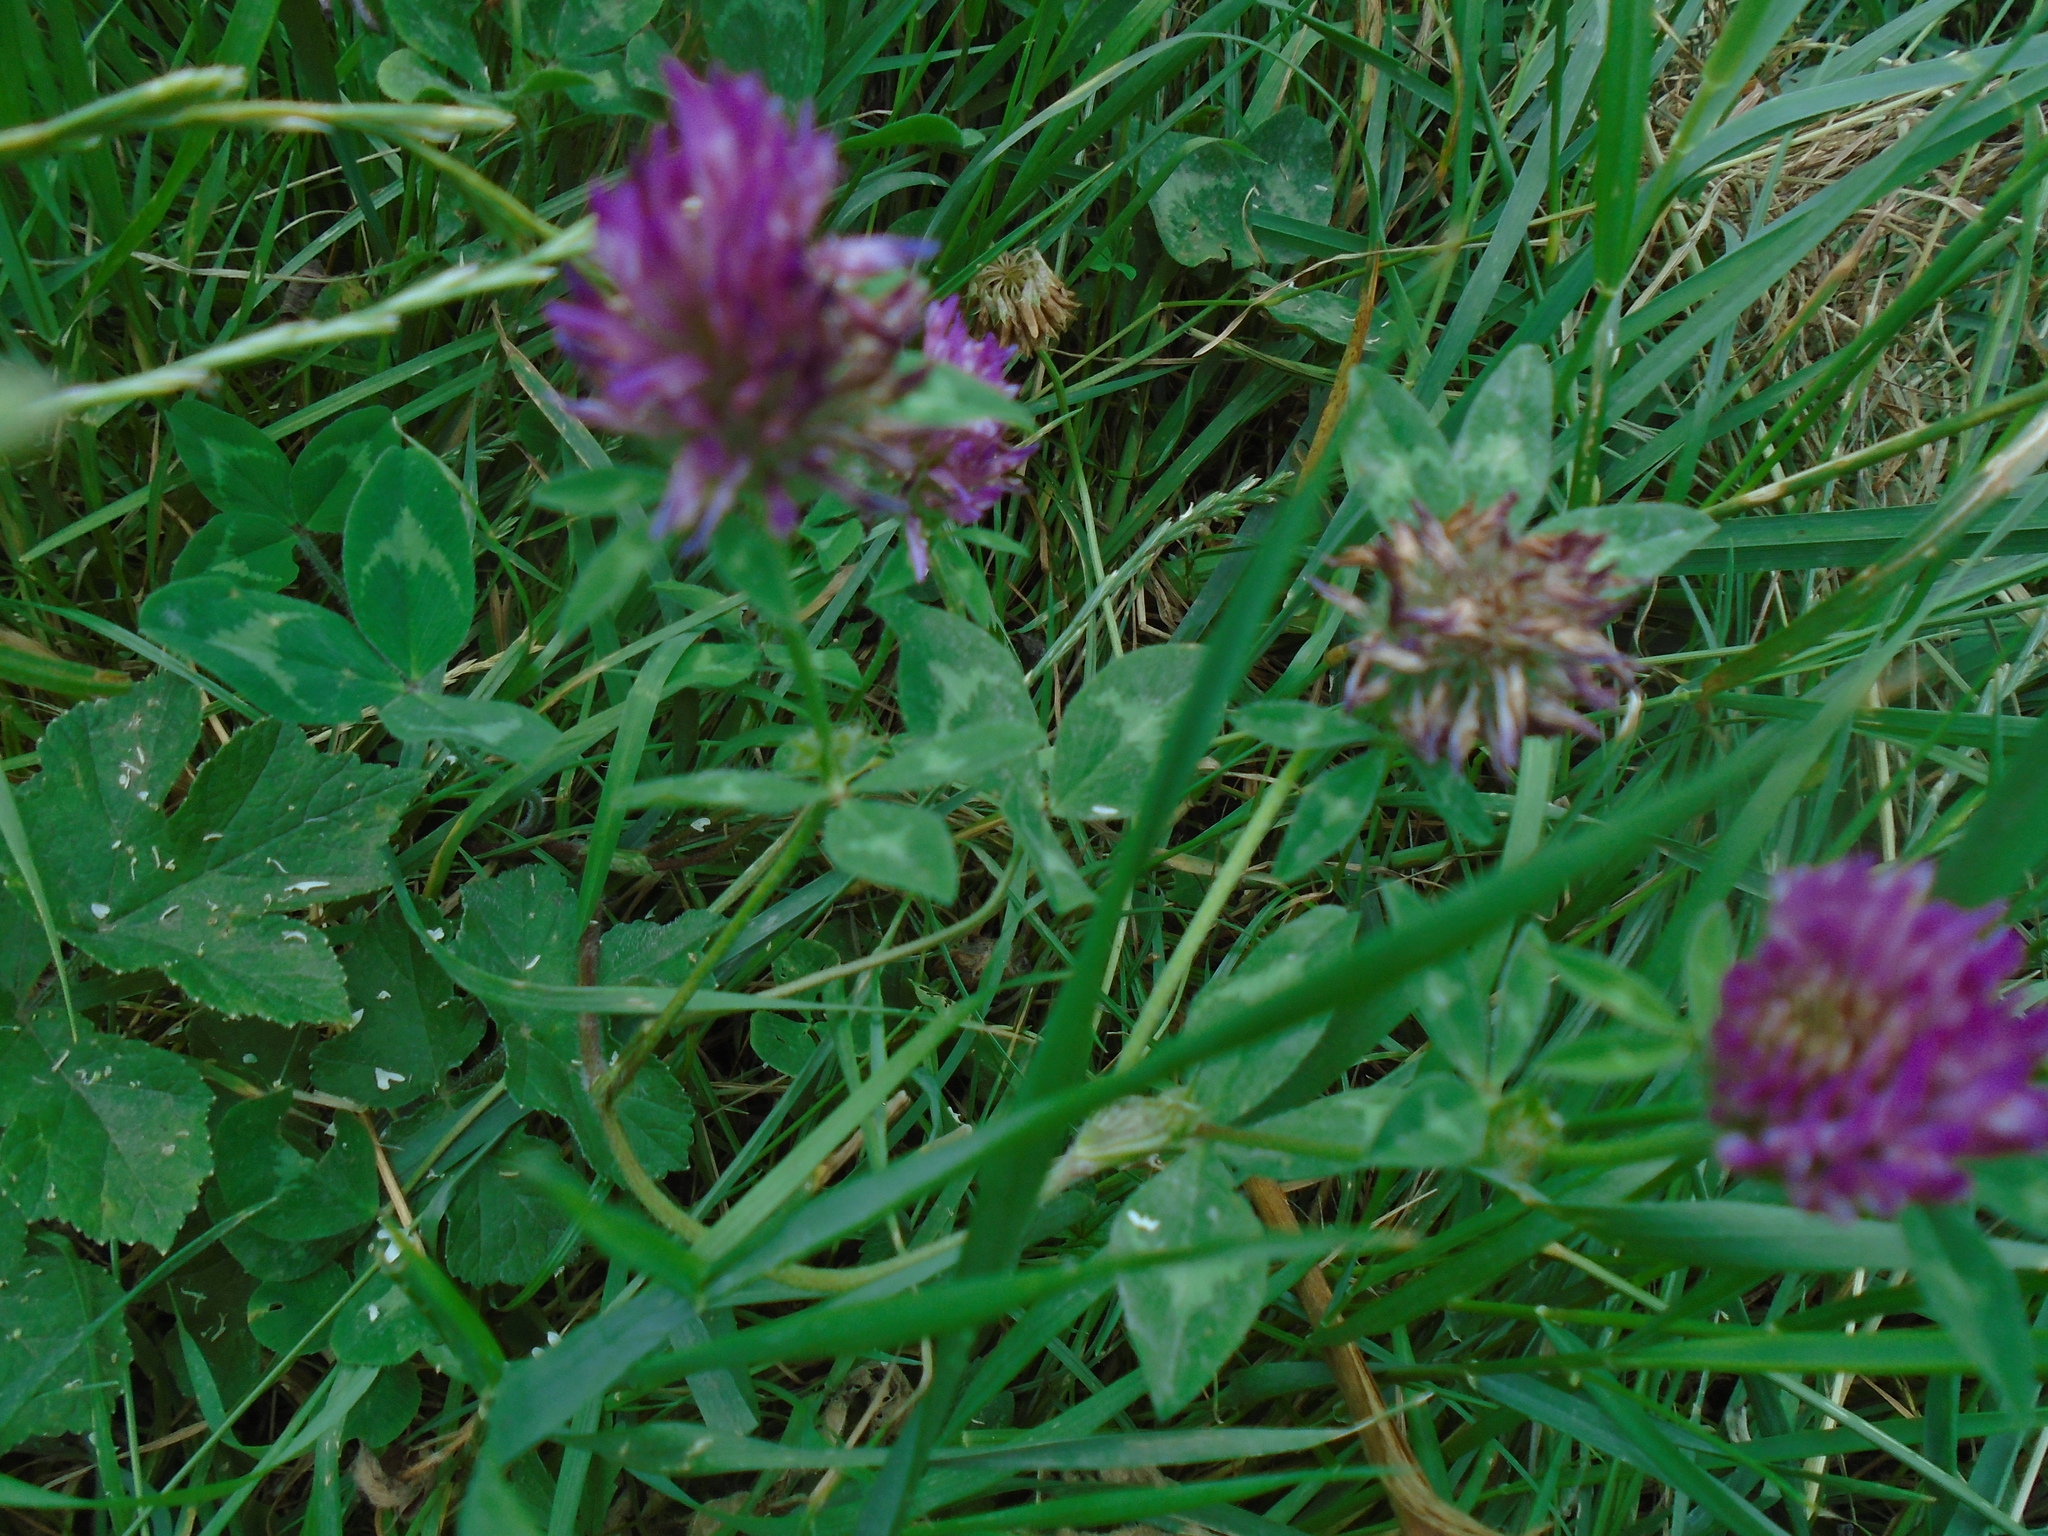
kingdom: Plantae
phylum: Tracheophyta
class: Magnoliopsida
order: Fabales
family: Fabaceae
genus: Trifolium
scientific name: Trifolium pratense
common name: Red clover
